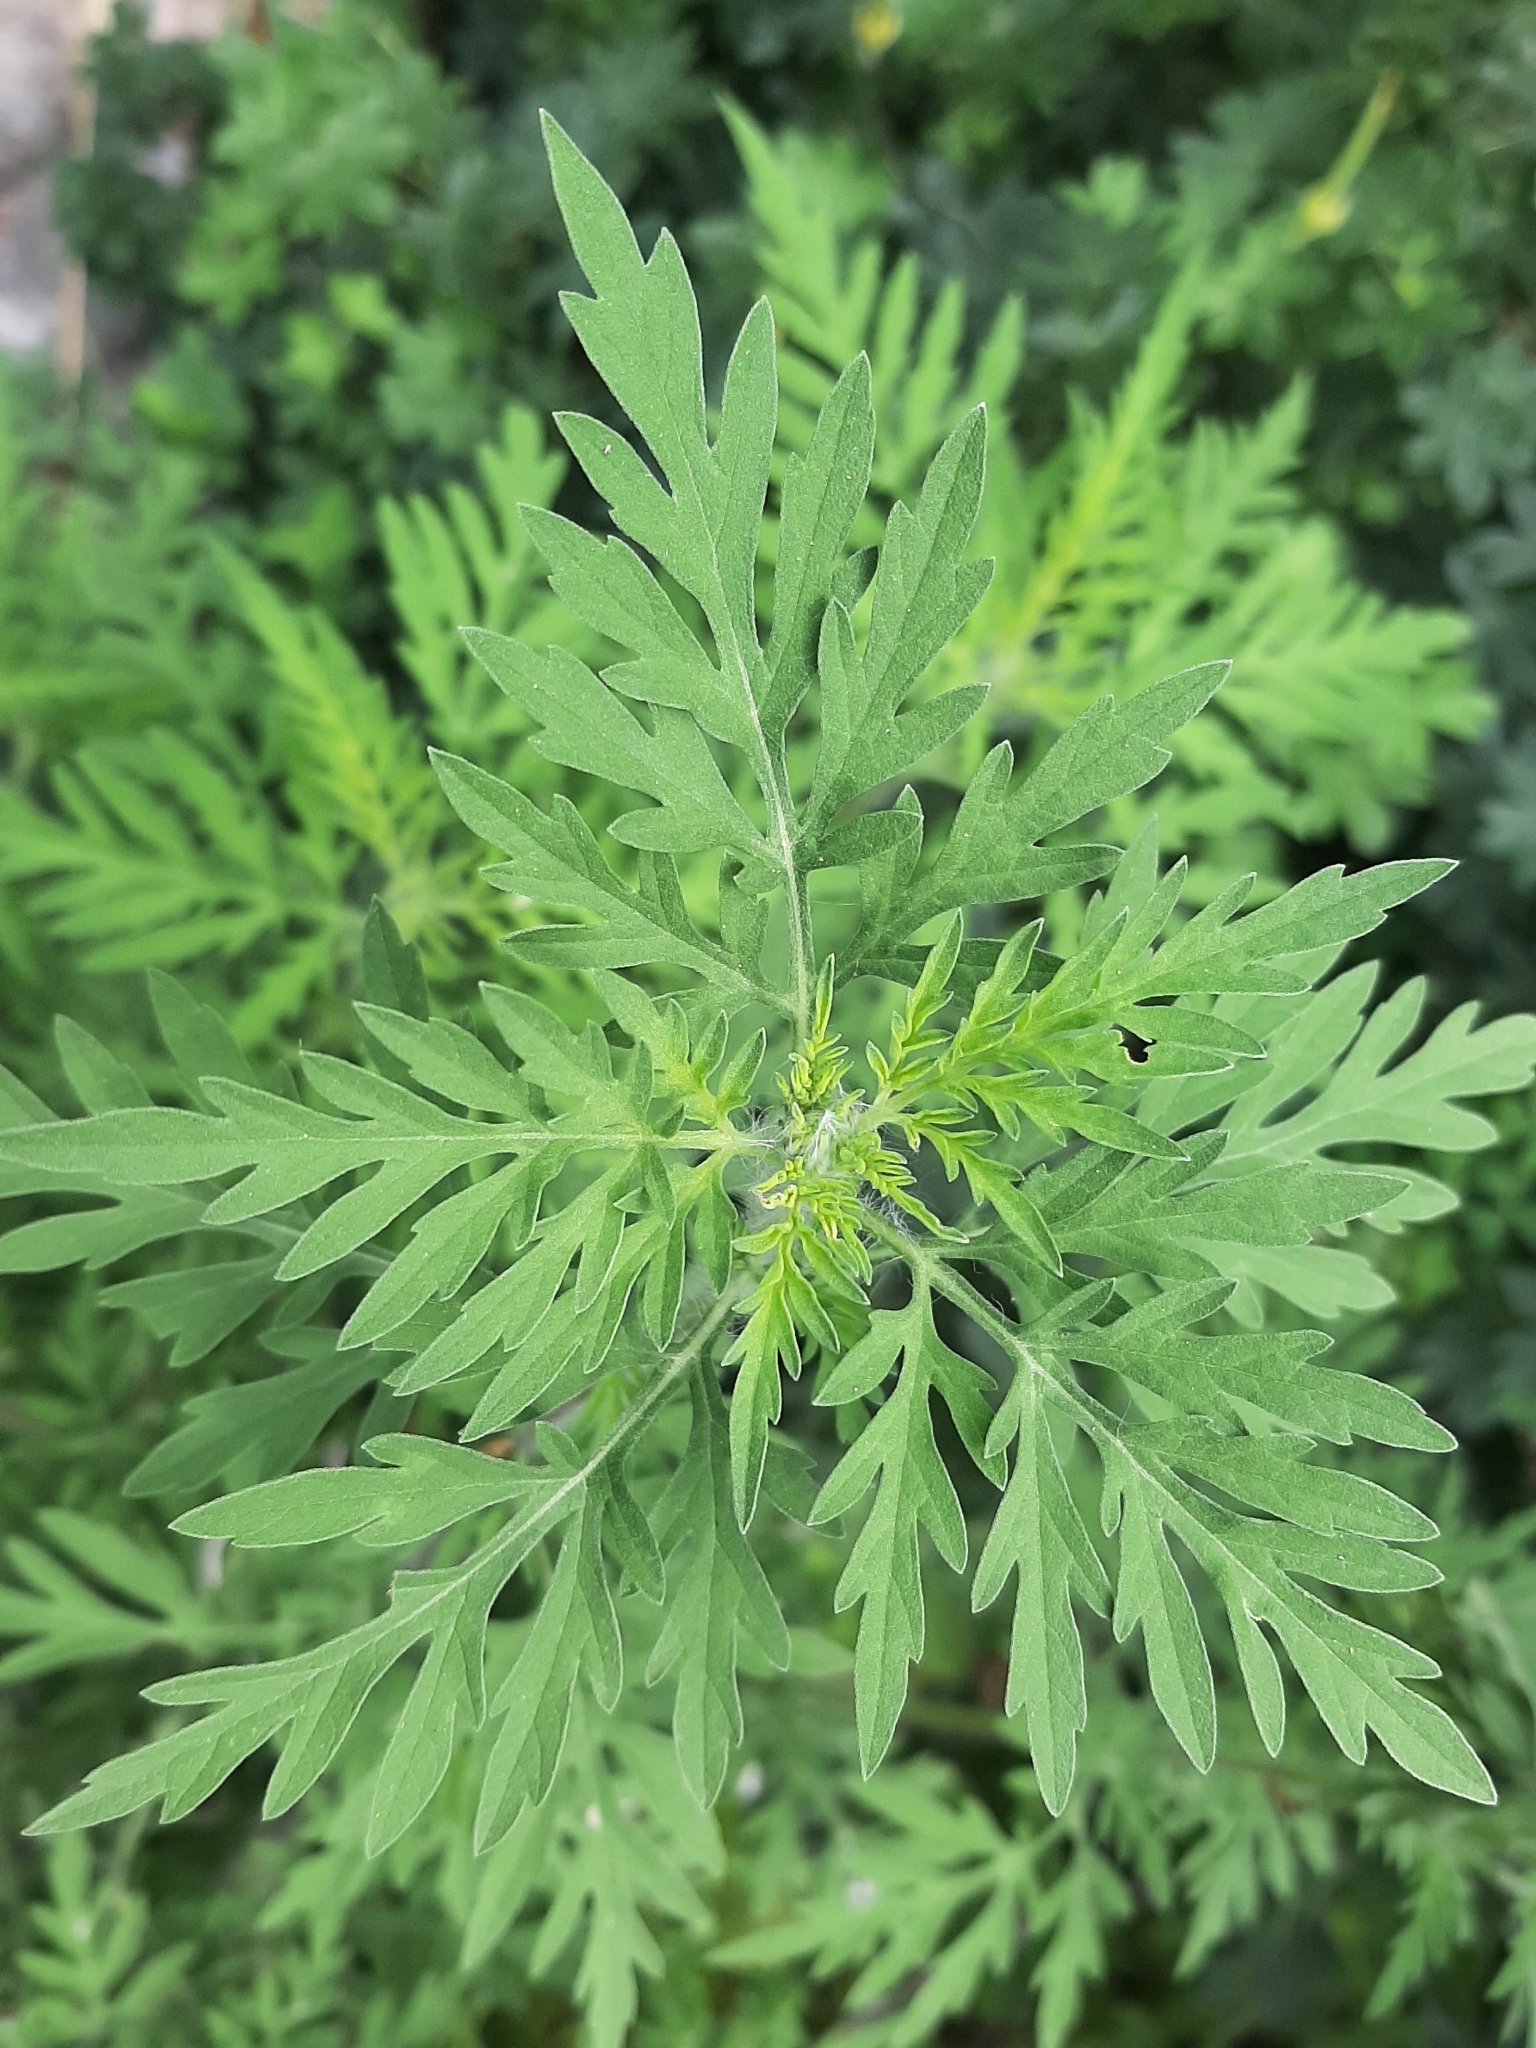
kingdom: Plantae
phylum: Tracheophyta
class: Magnoliopsida
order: Asterales
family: Asteraceae
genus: Ambrosia
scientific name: Ambrosia artemisiifolia
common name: Annual ragweed
